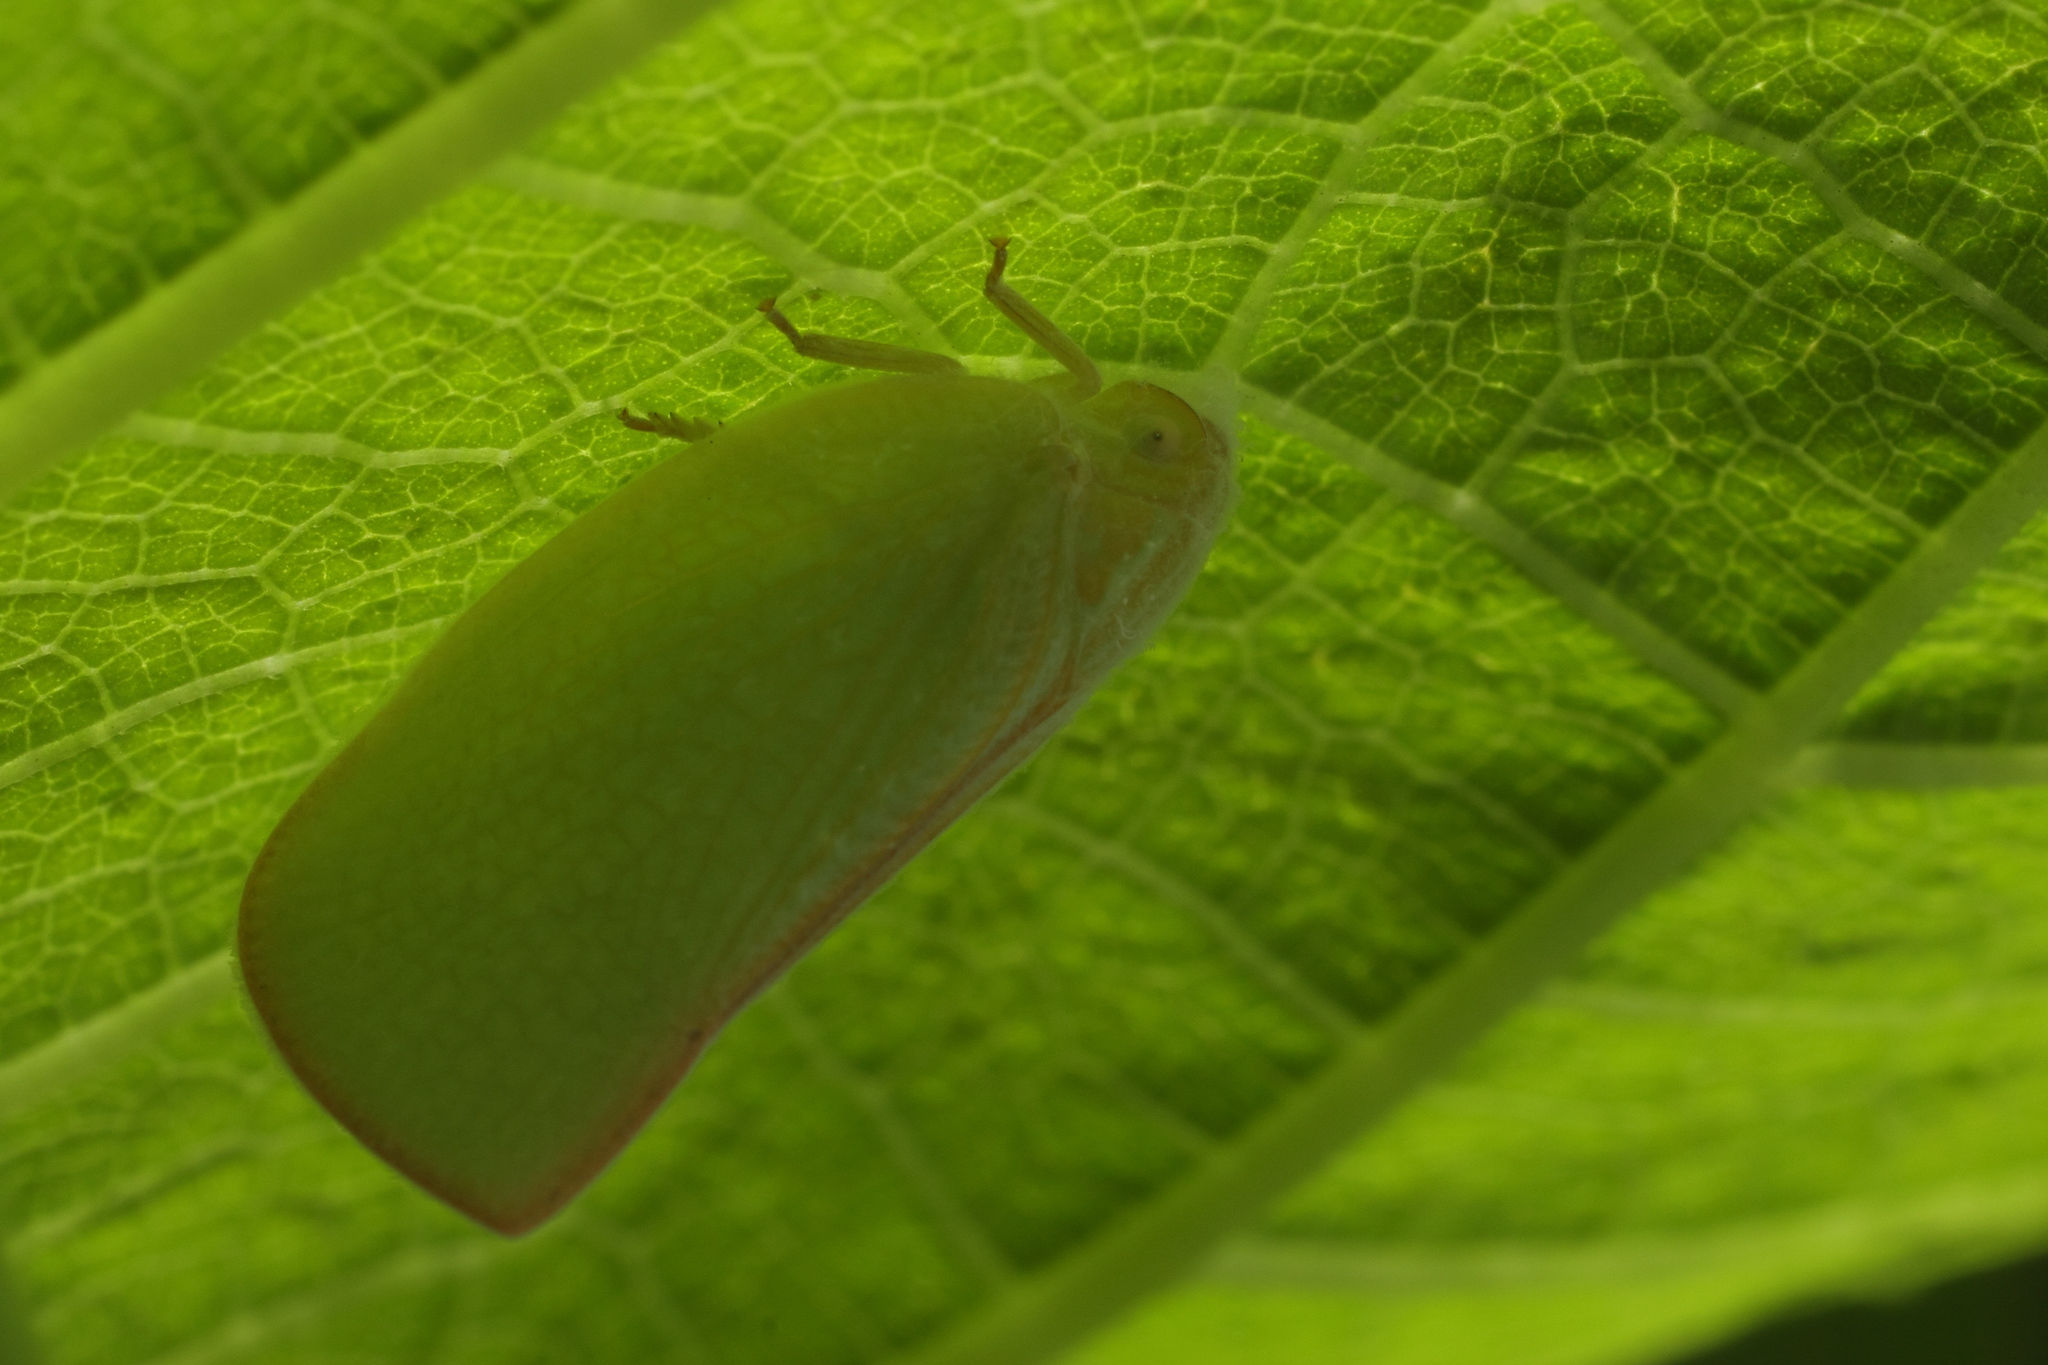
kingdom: Animalia
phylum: Arthropoda
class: Insecta
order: Hemiptera
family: Flatidae
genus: Geisha
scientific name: Geisha distinctissima
